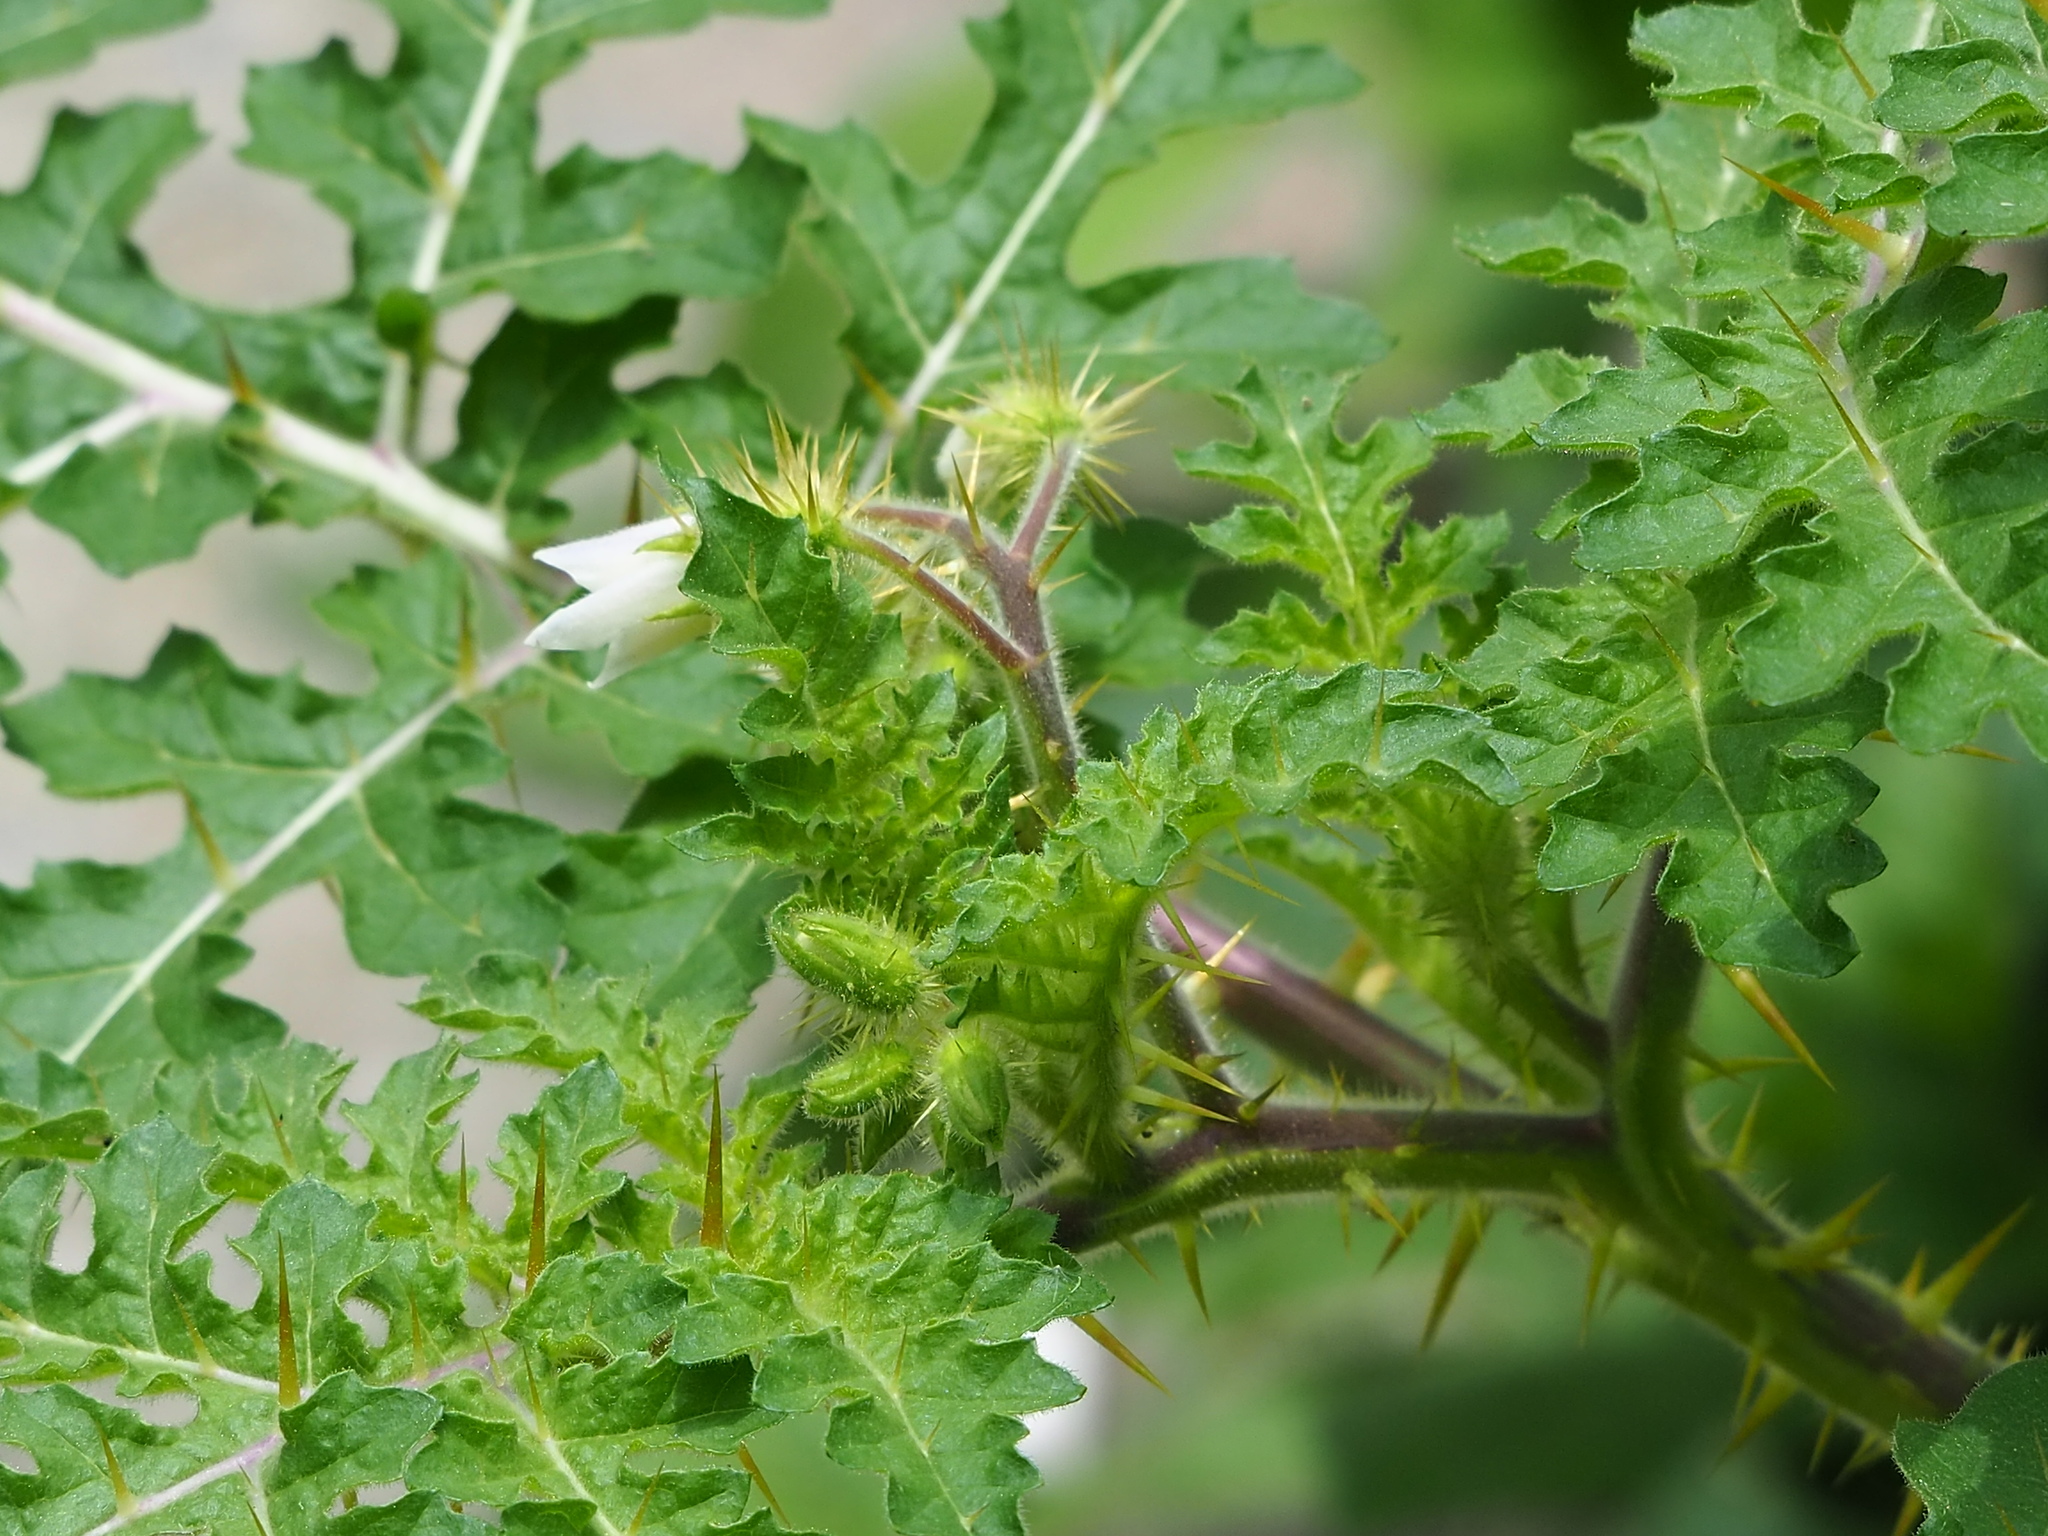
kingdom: Plantae
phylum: Tracheophyta
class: Magnoliopsida
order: Solanales
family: Solanaceae
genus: Solanum
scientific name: Solanum sisymbriifolium
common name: Red buffalo-bur
